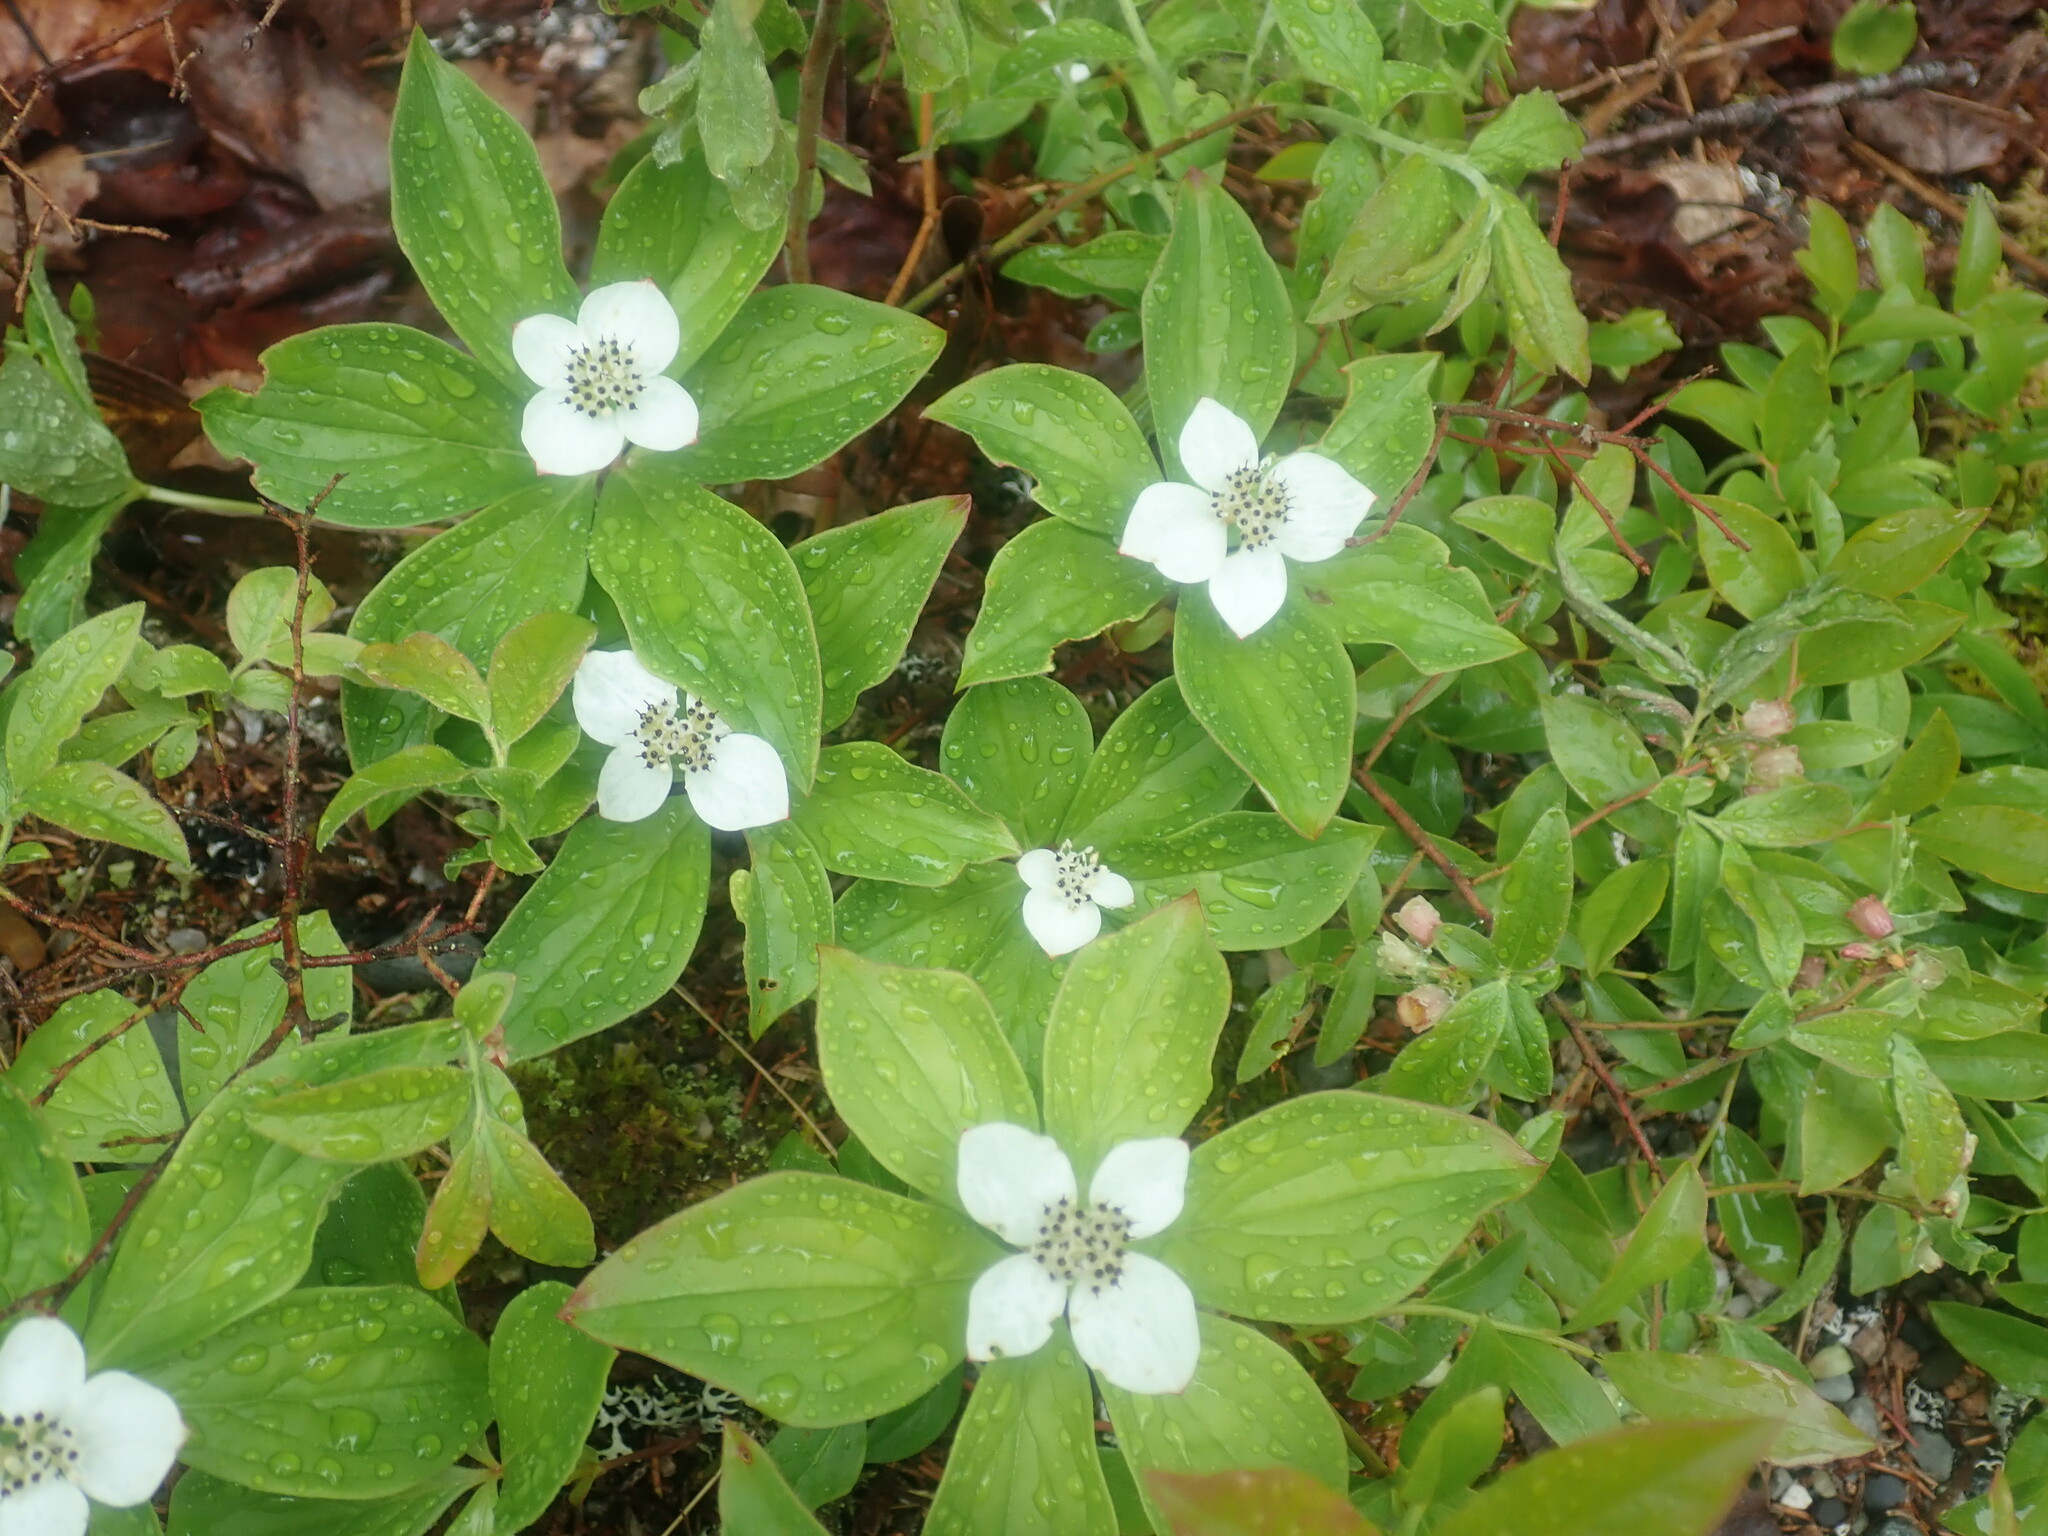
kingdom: Plantae
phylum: Tracheophyta
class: Magnoliopsida
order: Cornales
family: Cornaceae
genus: Cornus
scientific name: Cornus canadensis
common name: Creeping dogwood
